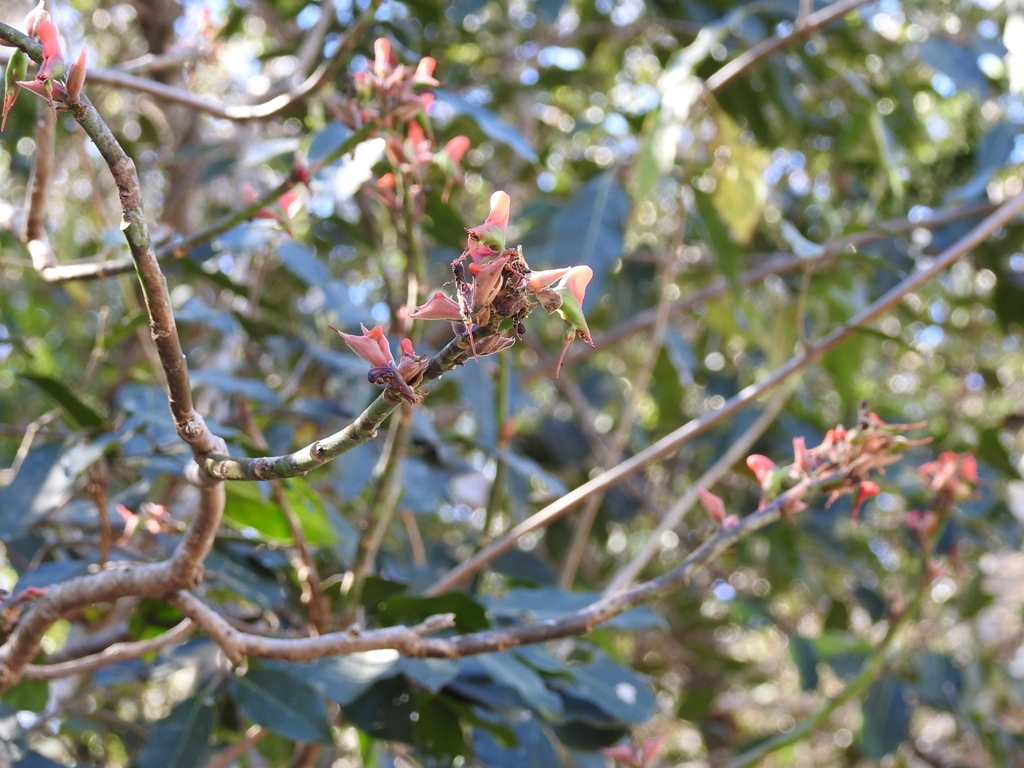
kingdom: Plantae
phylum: Tracheophyta
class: Magnoliopsida
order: Malpighiales
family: Euphorbiaceae
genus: Euphorbia
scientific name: Euphorbia calcarata
